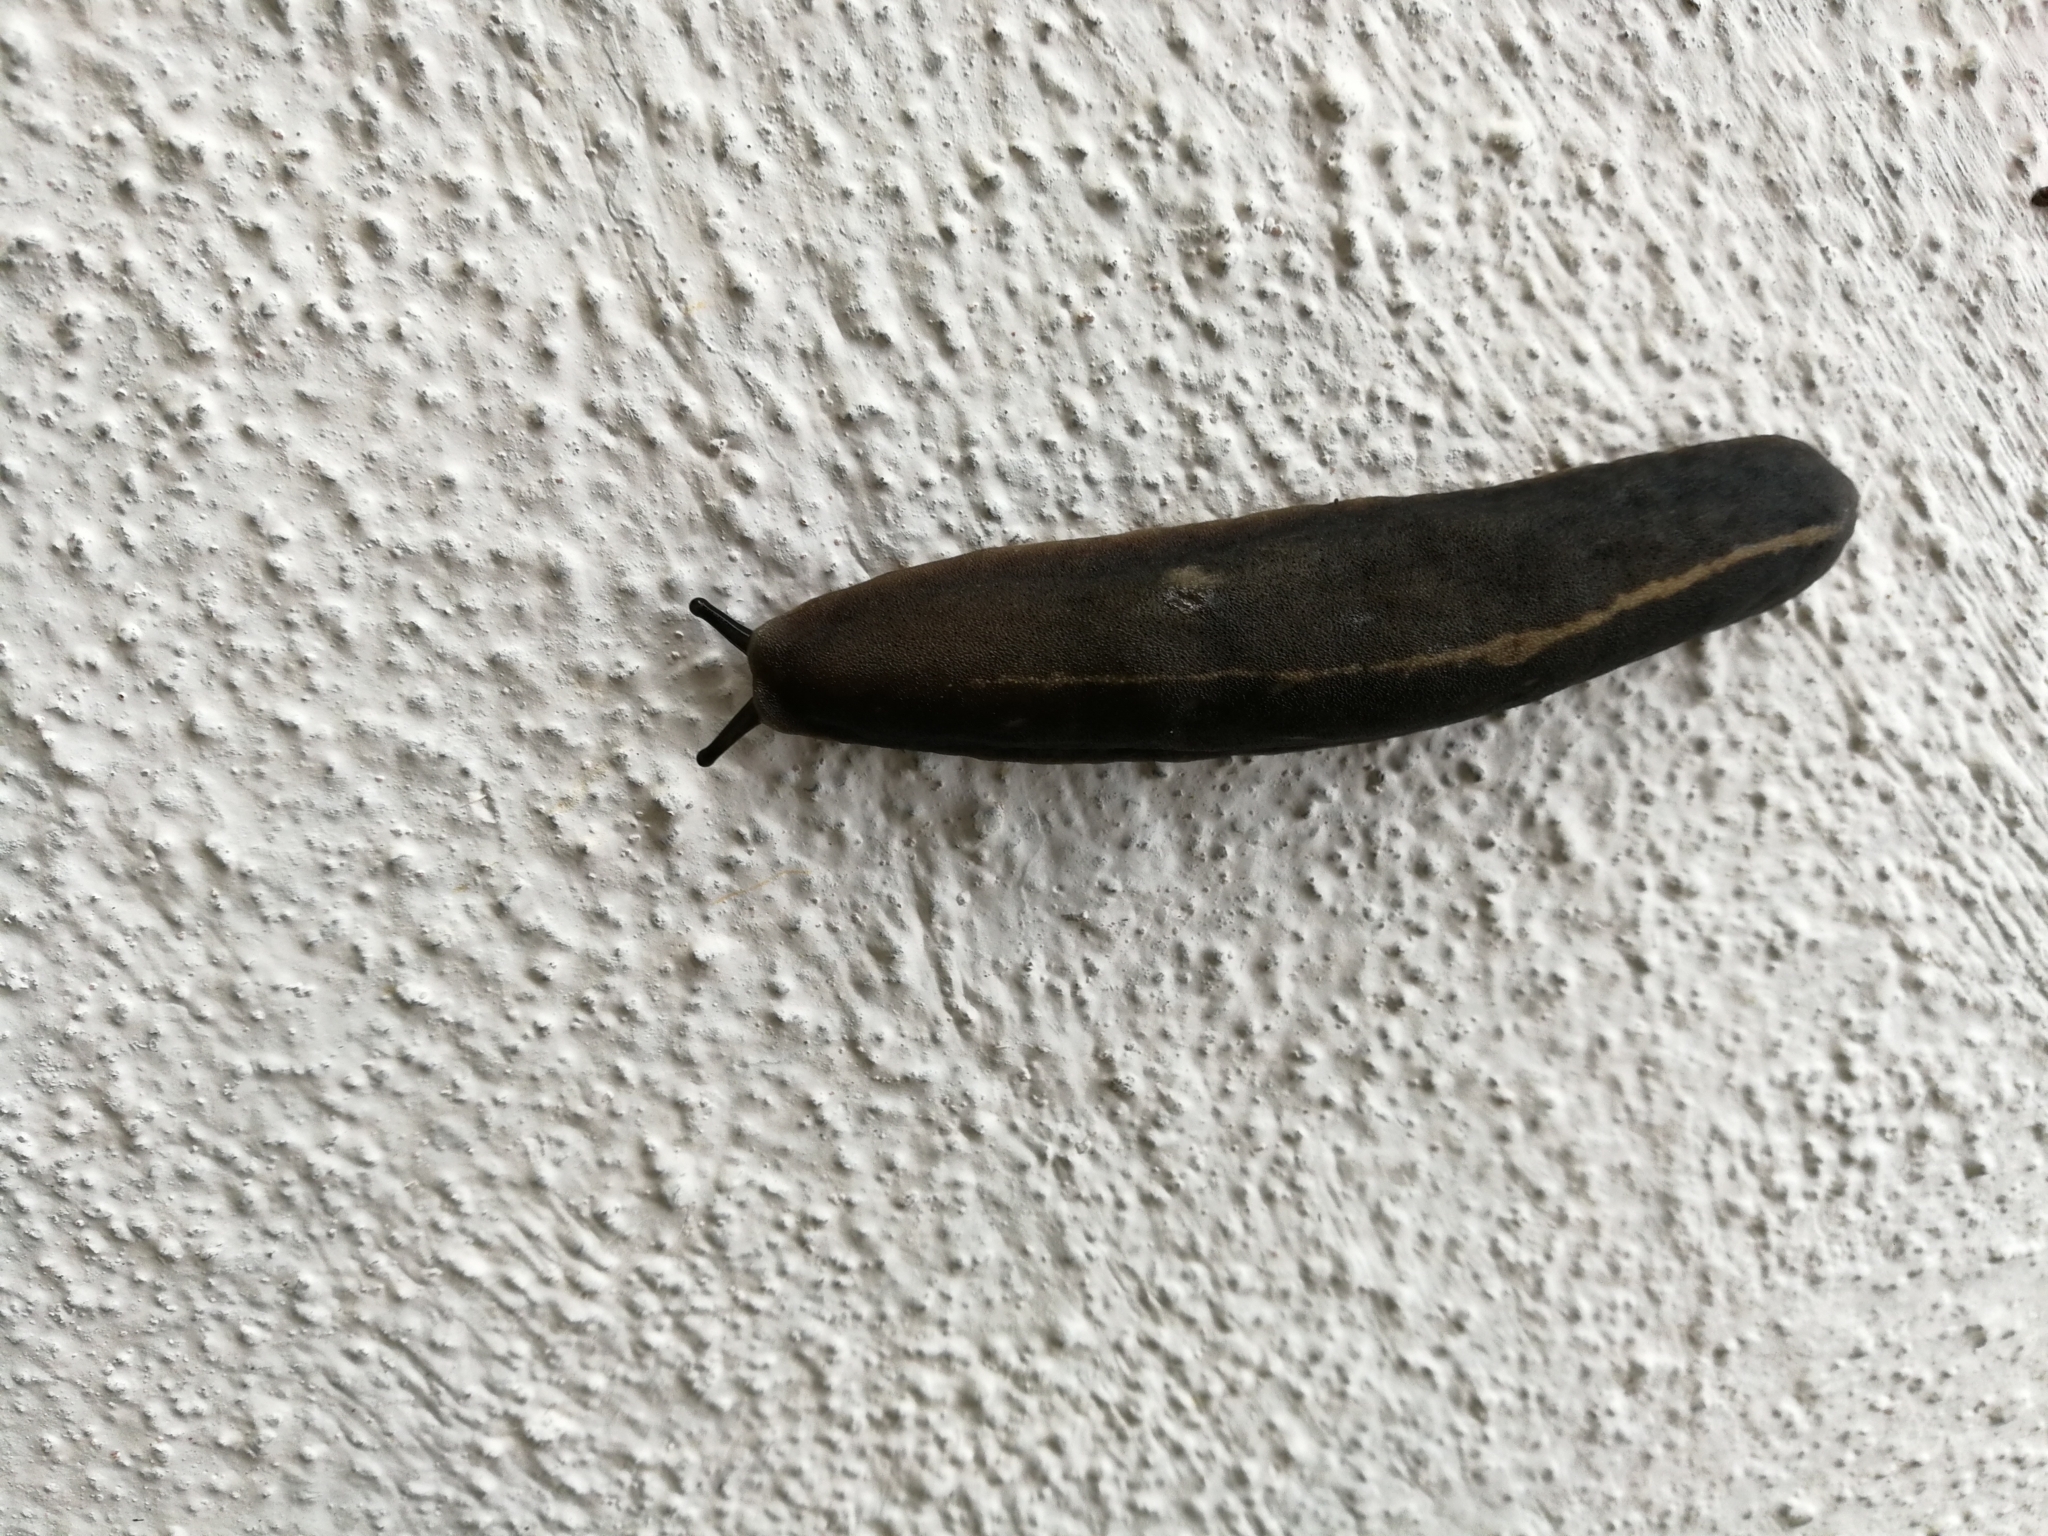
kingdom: Animalia
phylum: Mollusca
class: Gastropoda
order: Systellommatophora
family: Veronicellidae
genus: Laevicaulis
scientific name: Laevicaulis alte
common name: Tropical leatherleaf
